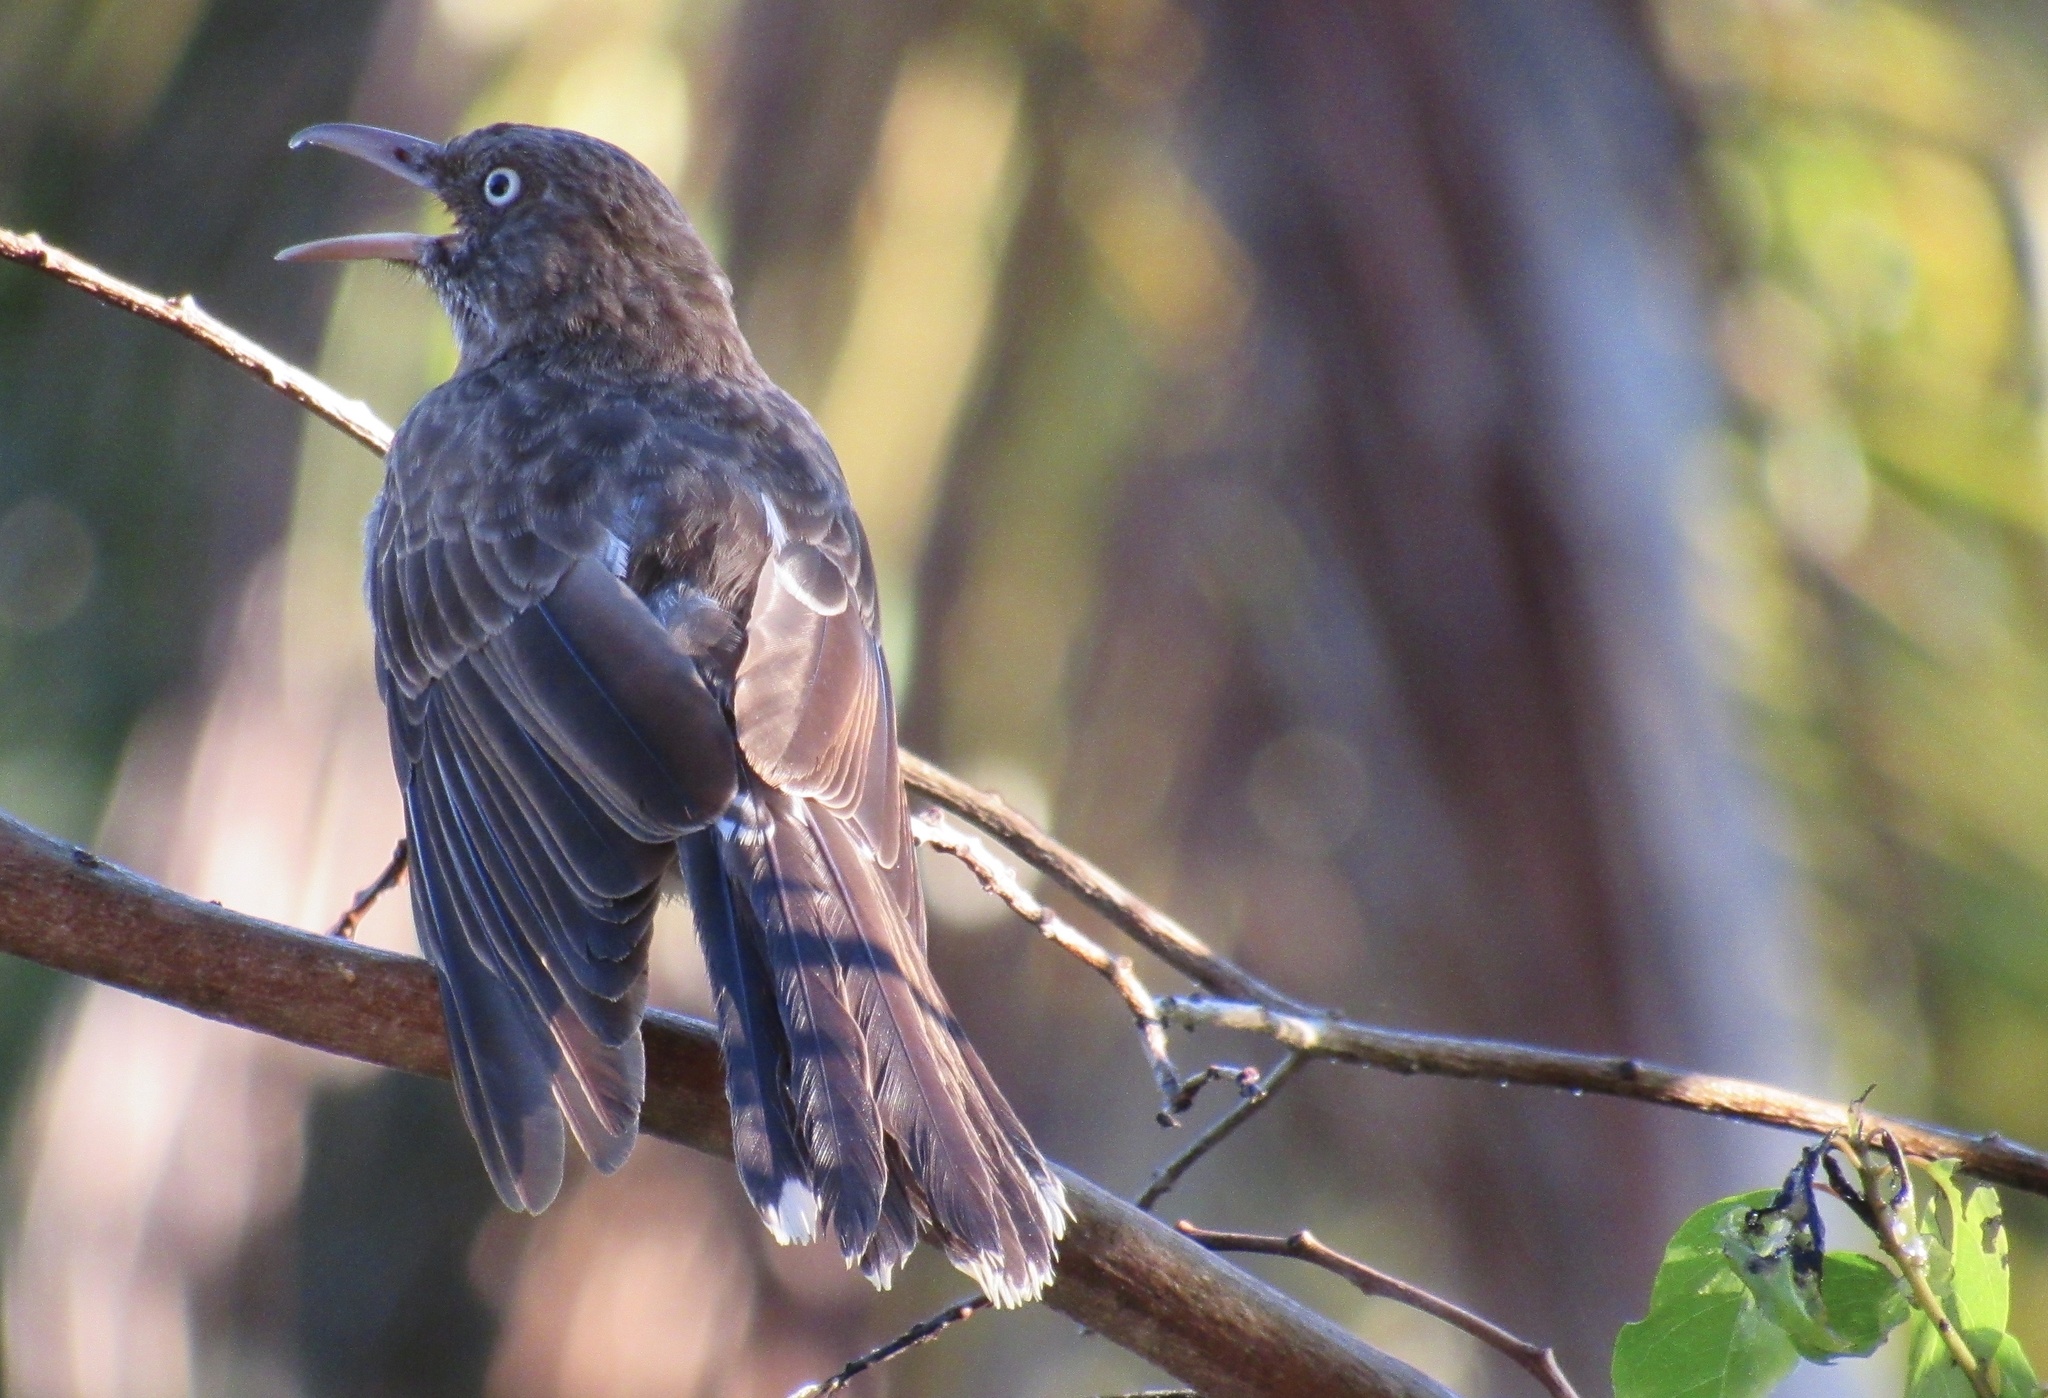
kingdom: Animalia
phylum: Chordata
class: Aves
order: Passeriformes
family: Mimidae
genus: Margarops
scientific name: Margarops fuscatus
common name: Pearly-eyed thrasher
